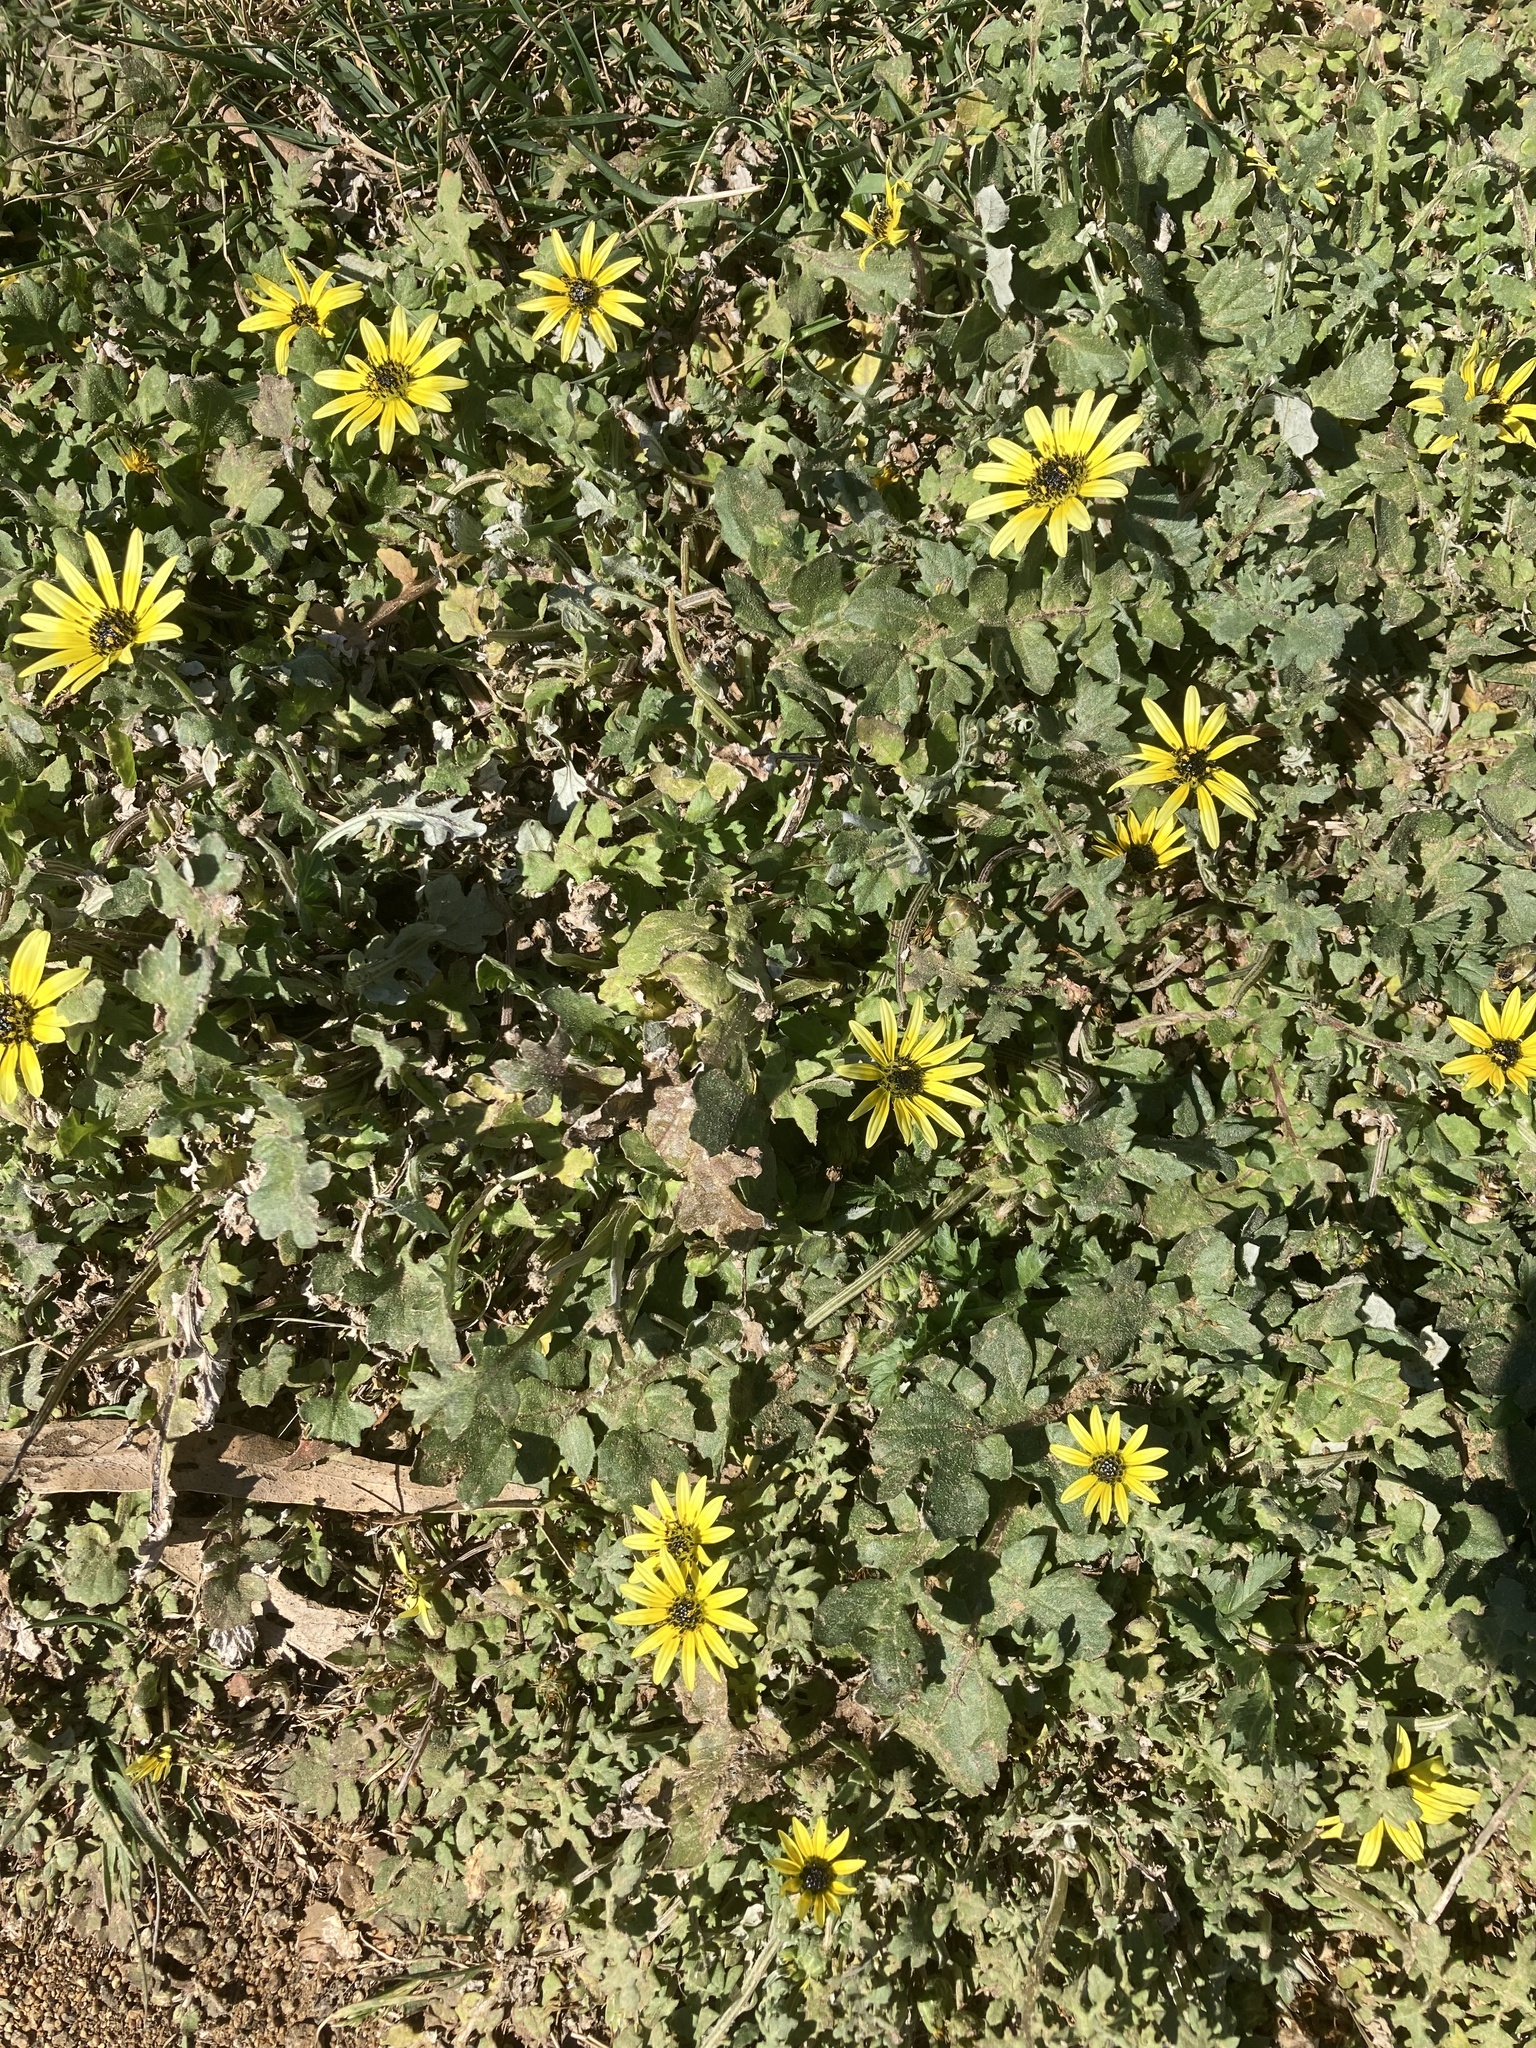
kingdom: Plantae
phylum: Tracheophyta
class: Magnoliopsida
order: Asterales
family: Asteraceae
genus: Arctotheca
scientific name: Arctotheca calendula
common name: Capeweed
